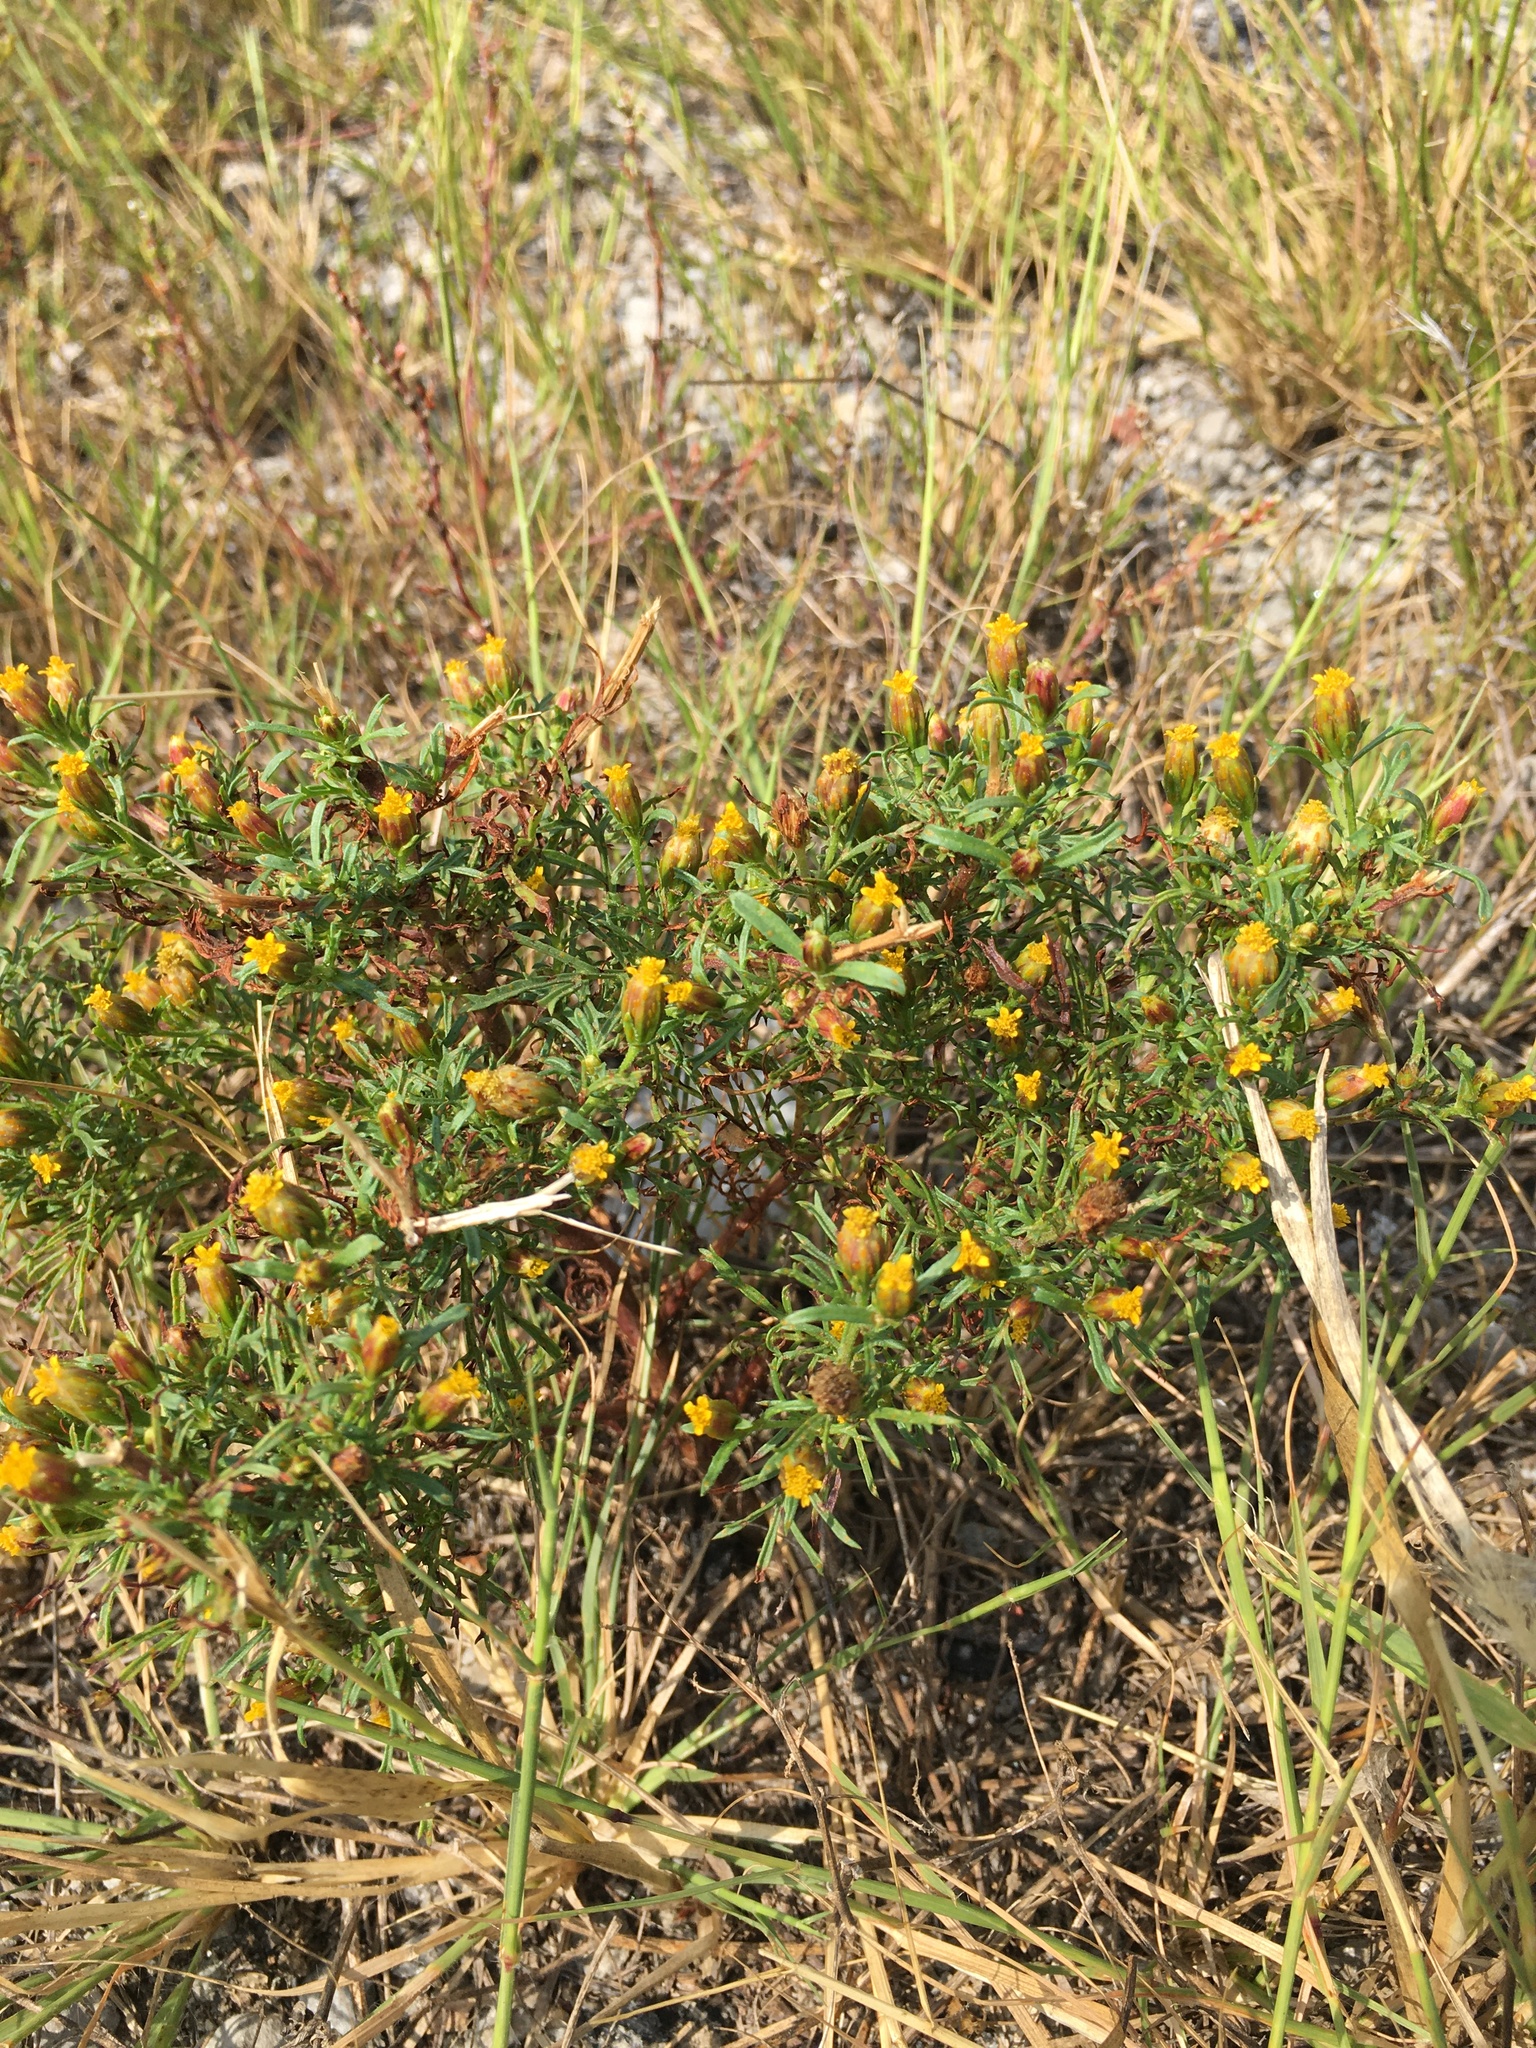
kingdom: Plantae
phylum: Tracheophyta
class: Magnoliopsida
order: Asterales
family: Asteraceae
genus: Dyssodia
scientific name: Dyssodia papposa
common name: Dogweed
